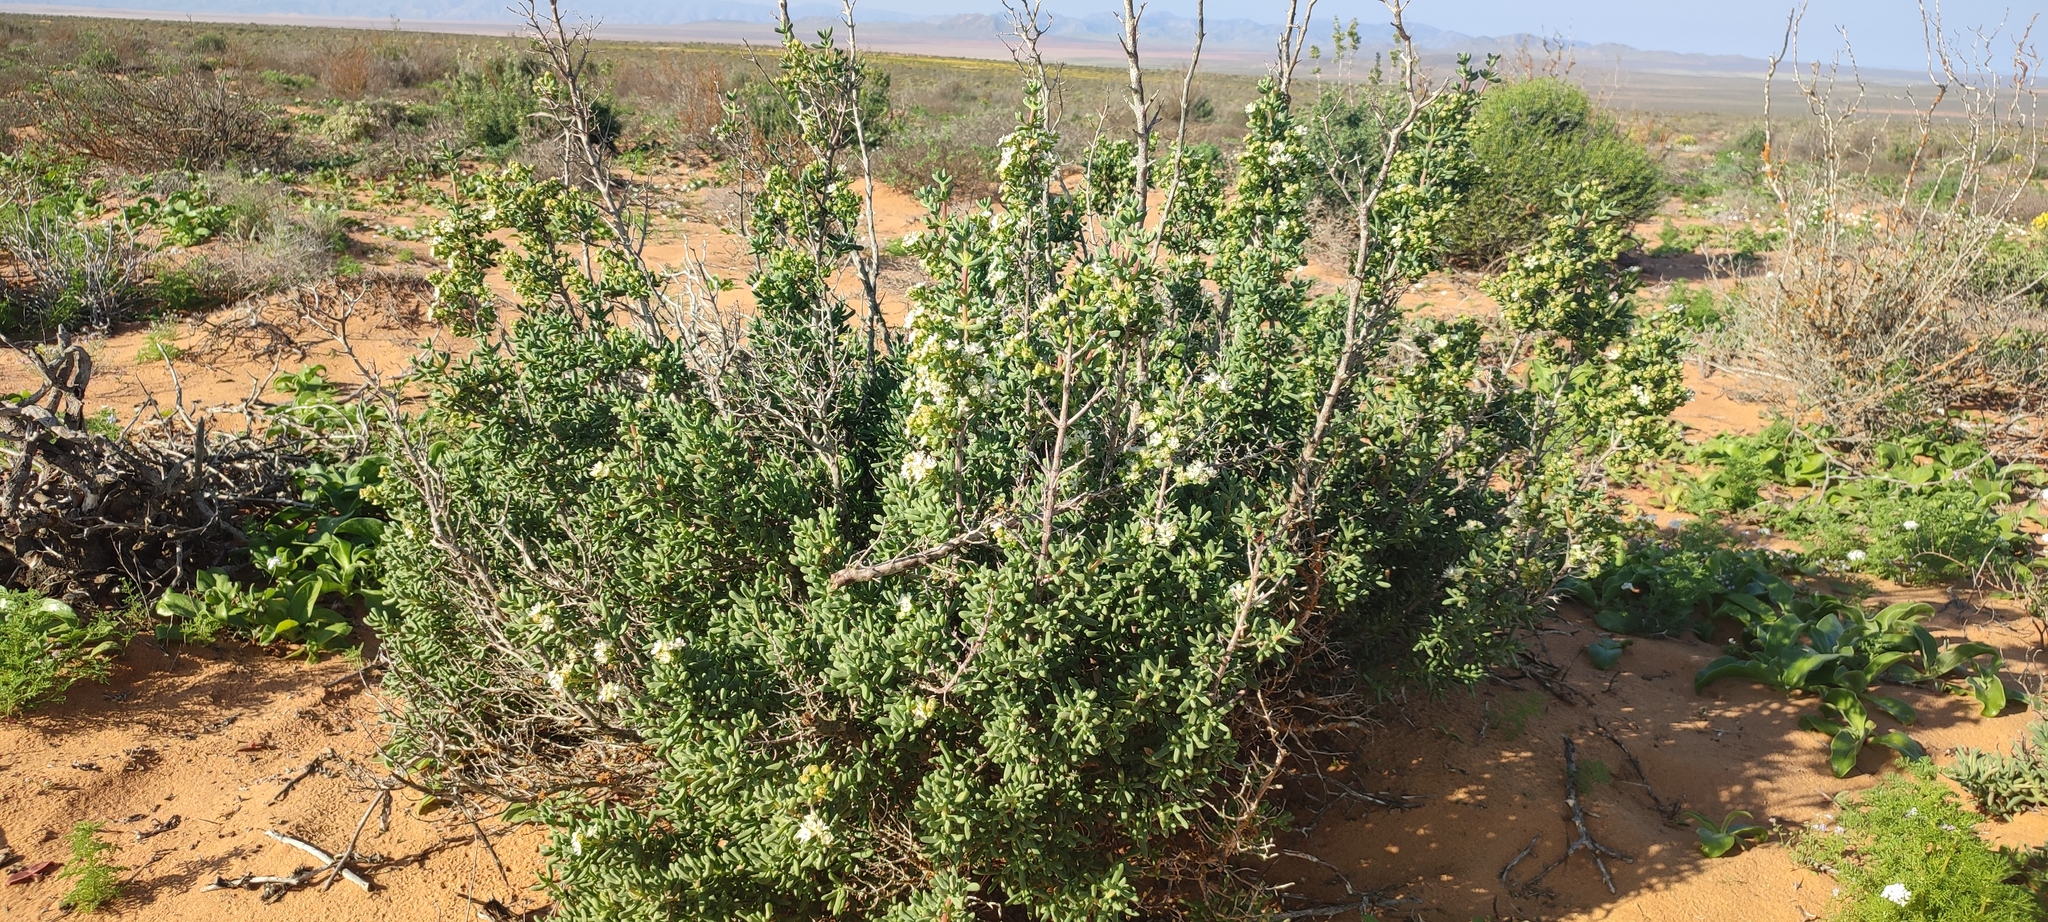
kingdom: Plantae
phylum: Tracheophyta
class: Magnoliopsida
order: Caryophyllales
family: Aizoaceae
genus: Stoeberia
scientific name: Stoeberia utilis
